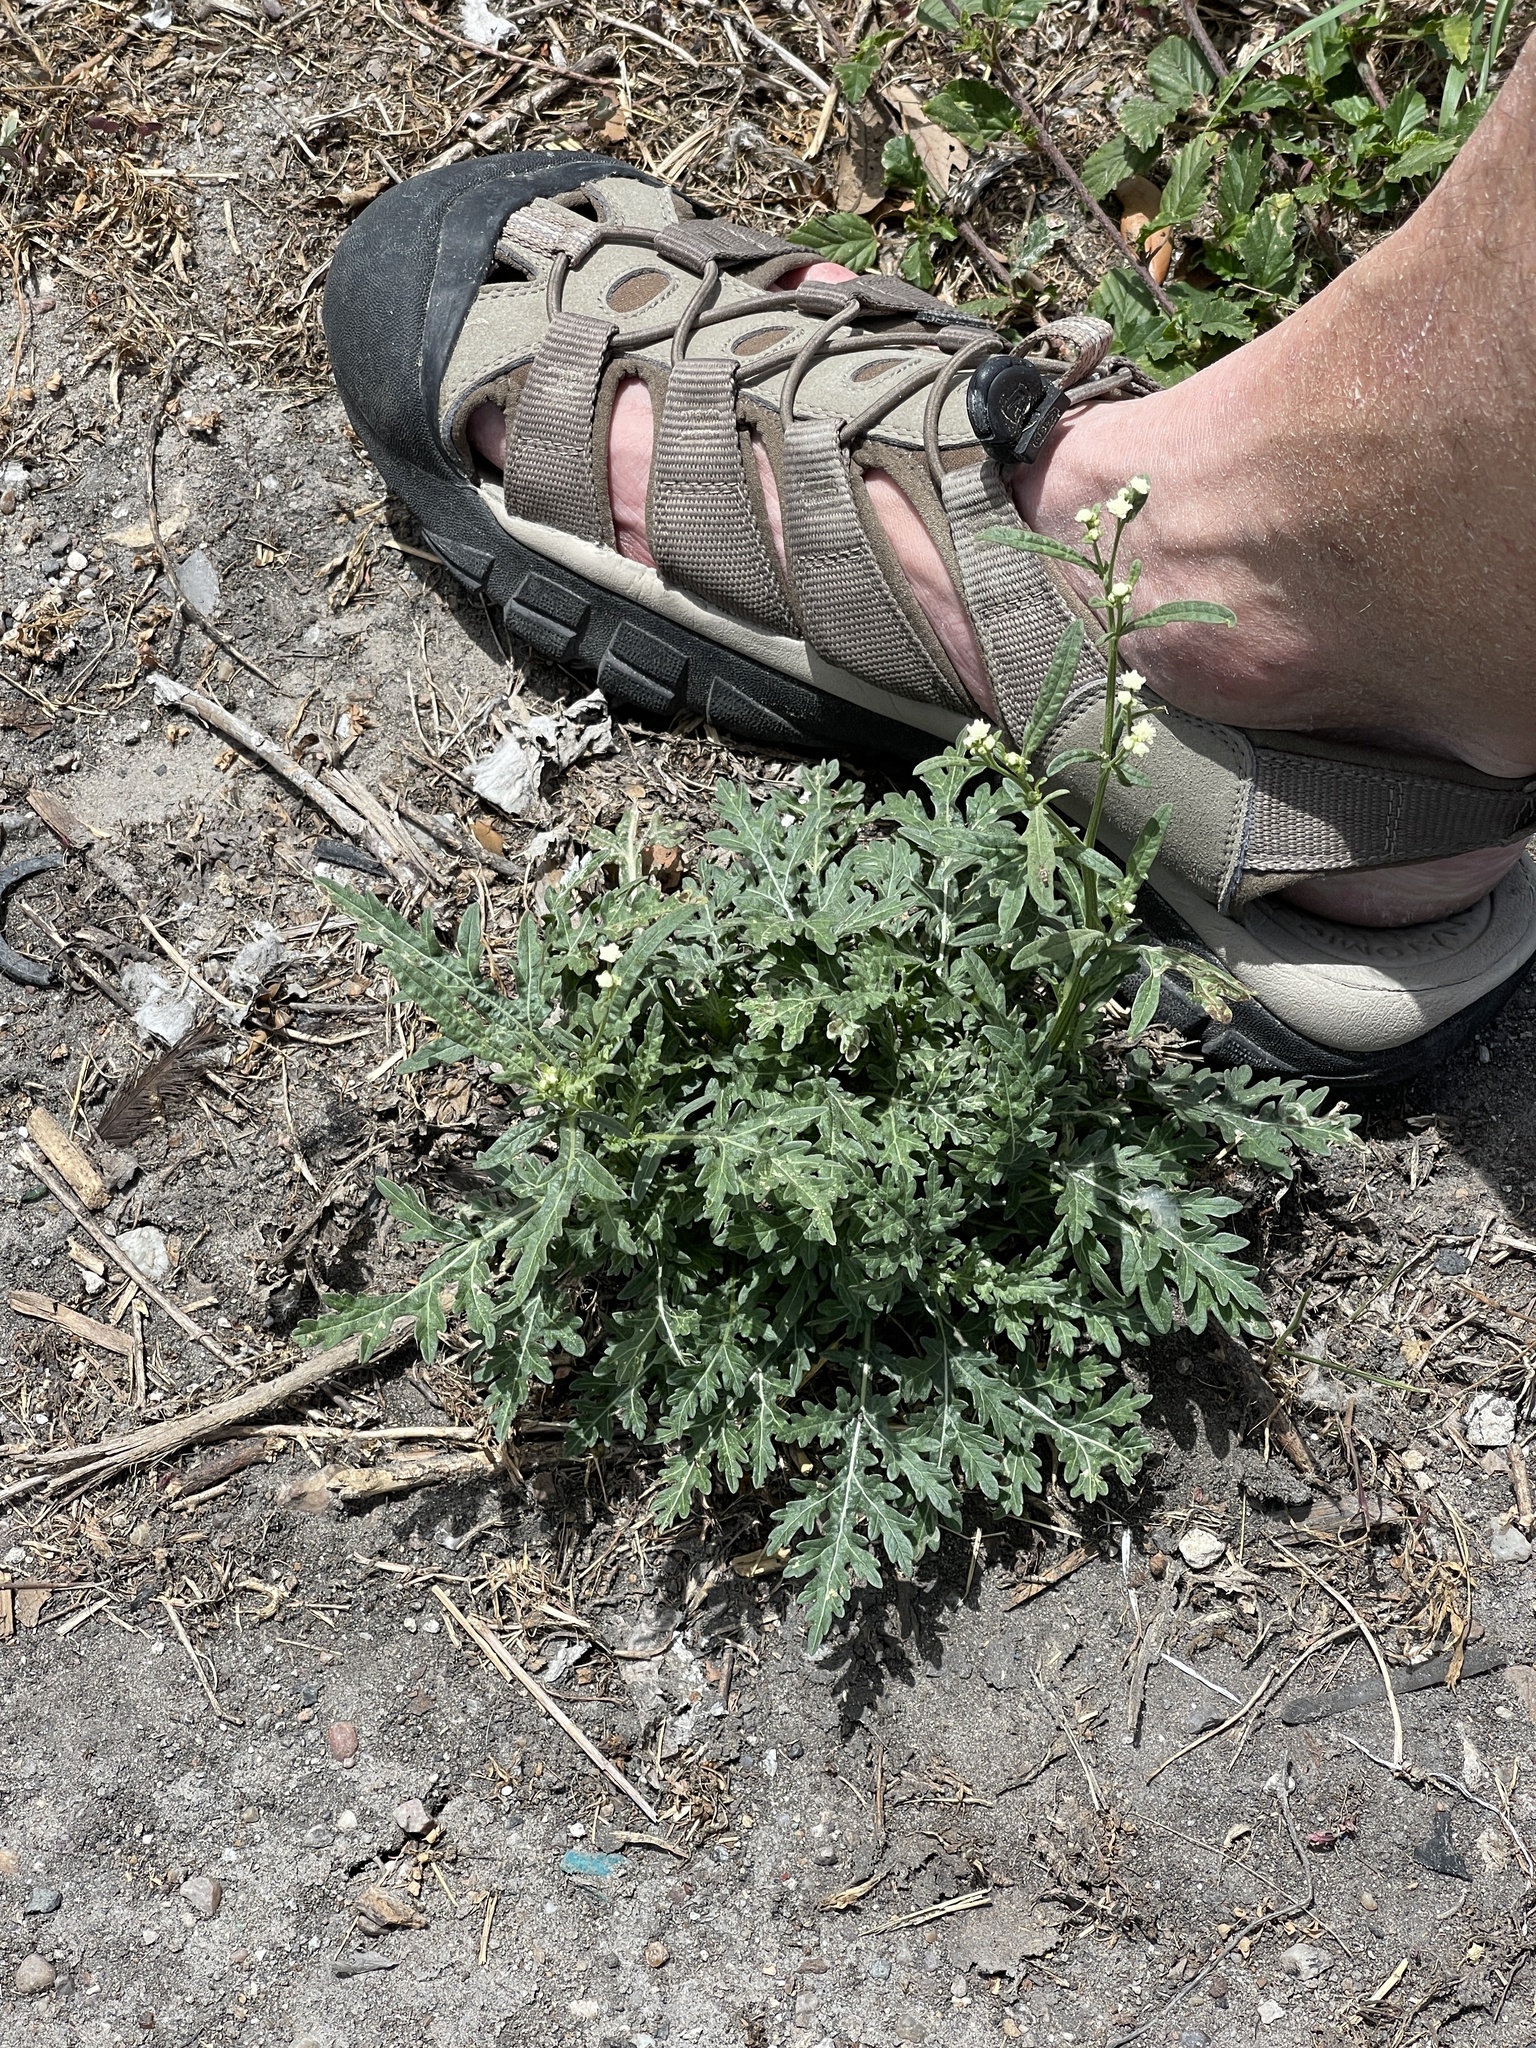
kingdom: Plantae
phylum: Tracheophyta
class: Magnoliopsida
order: Asterales
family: Asteraceae
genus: Parthenium
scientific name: Parthenium hysterophorus
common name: Santa maria feverfew
